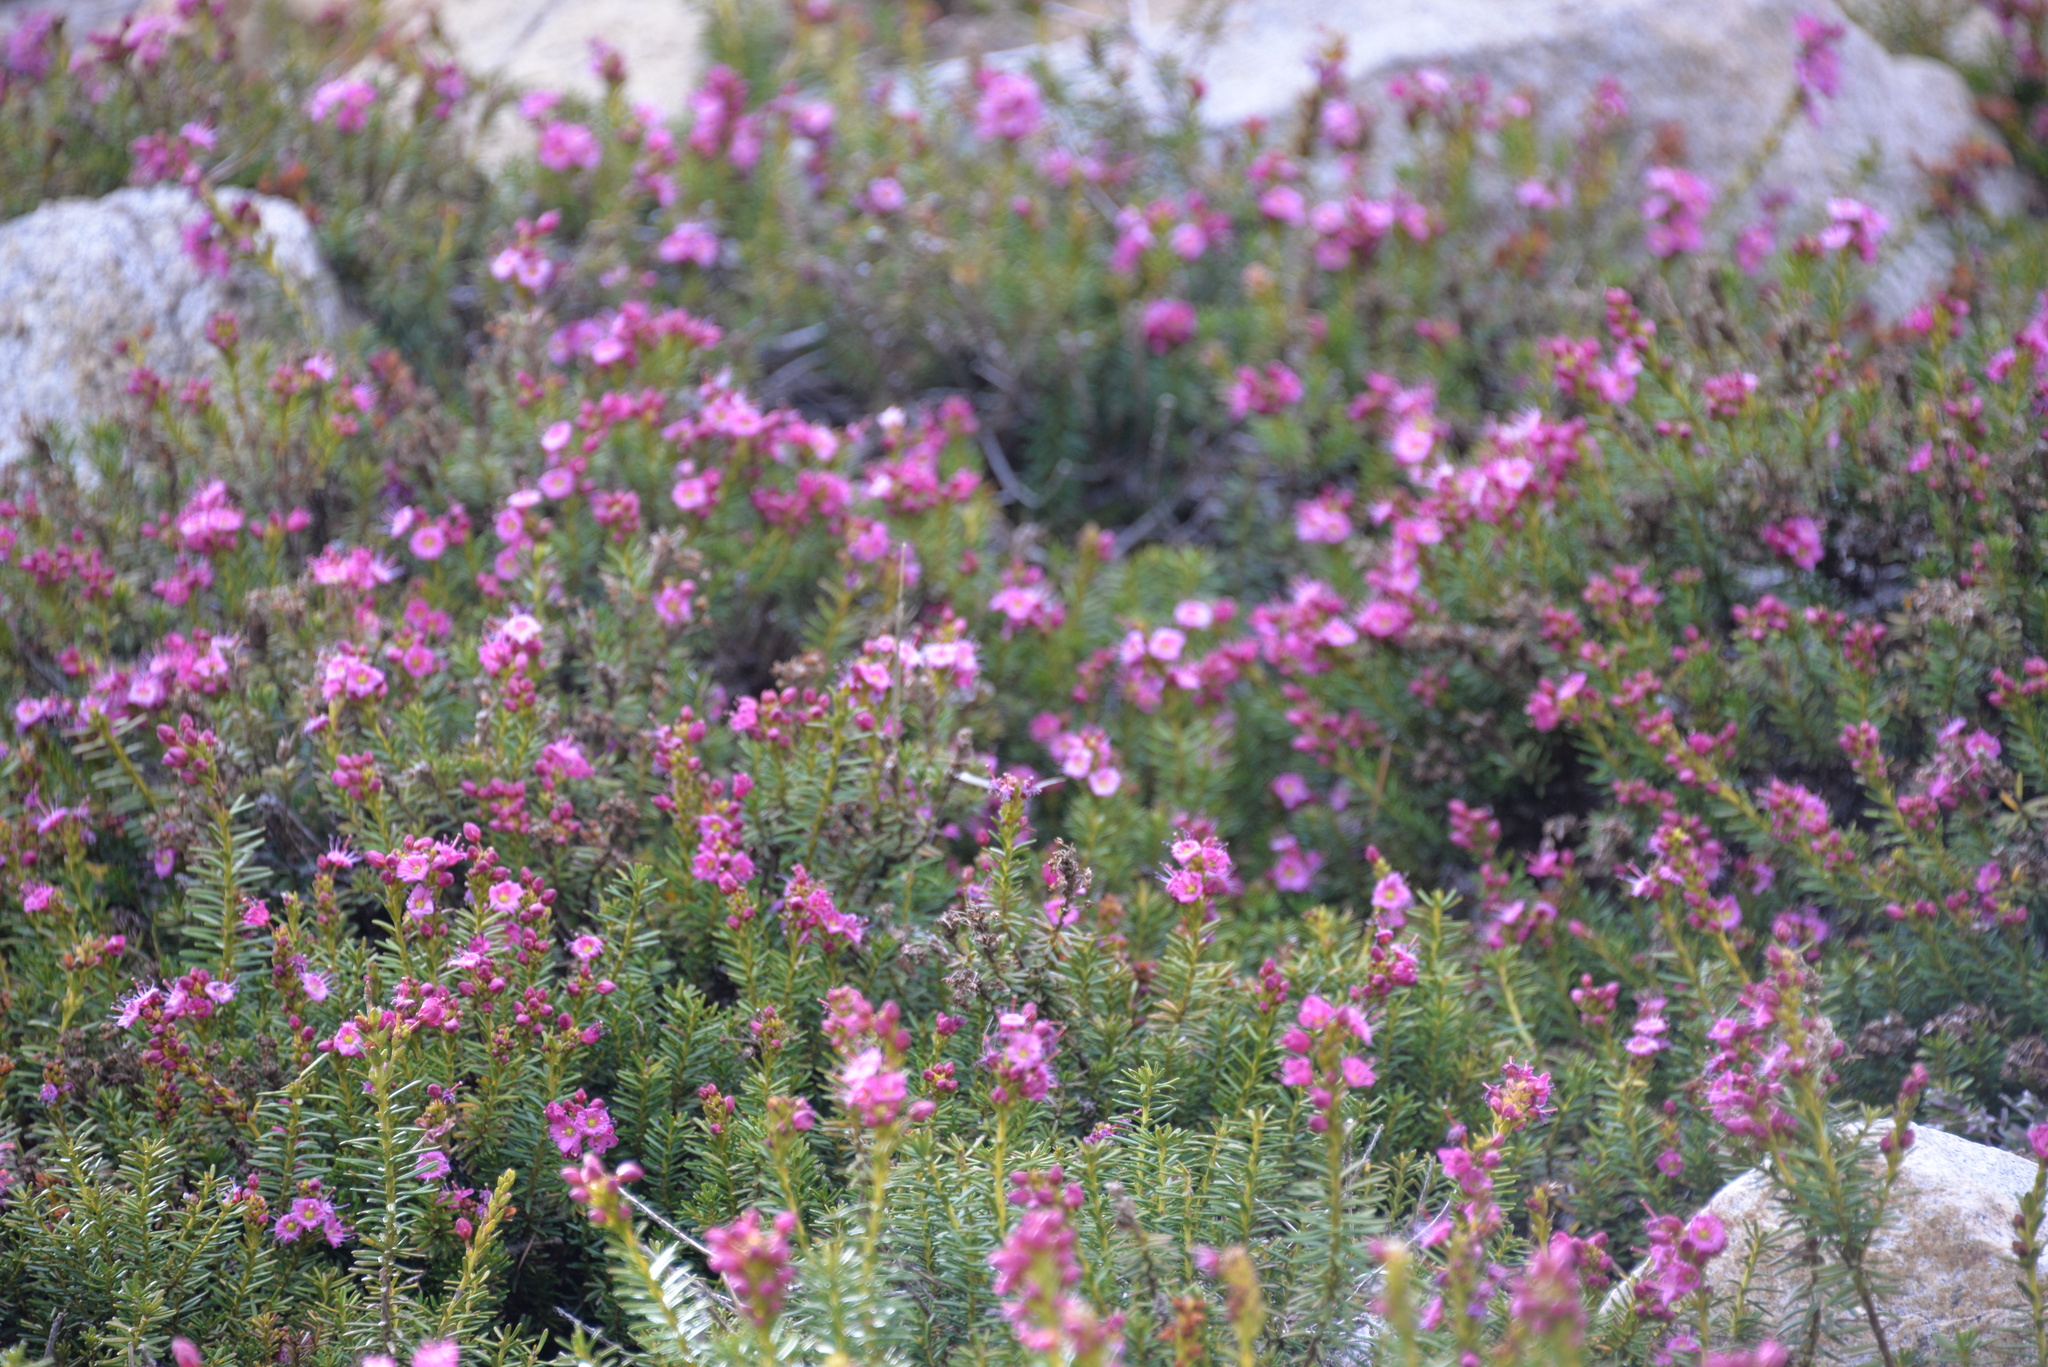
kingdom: Plantae
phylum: Tracheophyta
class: Magnoliopsida
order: Ericales
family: Ericaceae
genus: Kalmia
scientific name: Kalmia microphylla
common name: Alpine bog laurel
